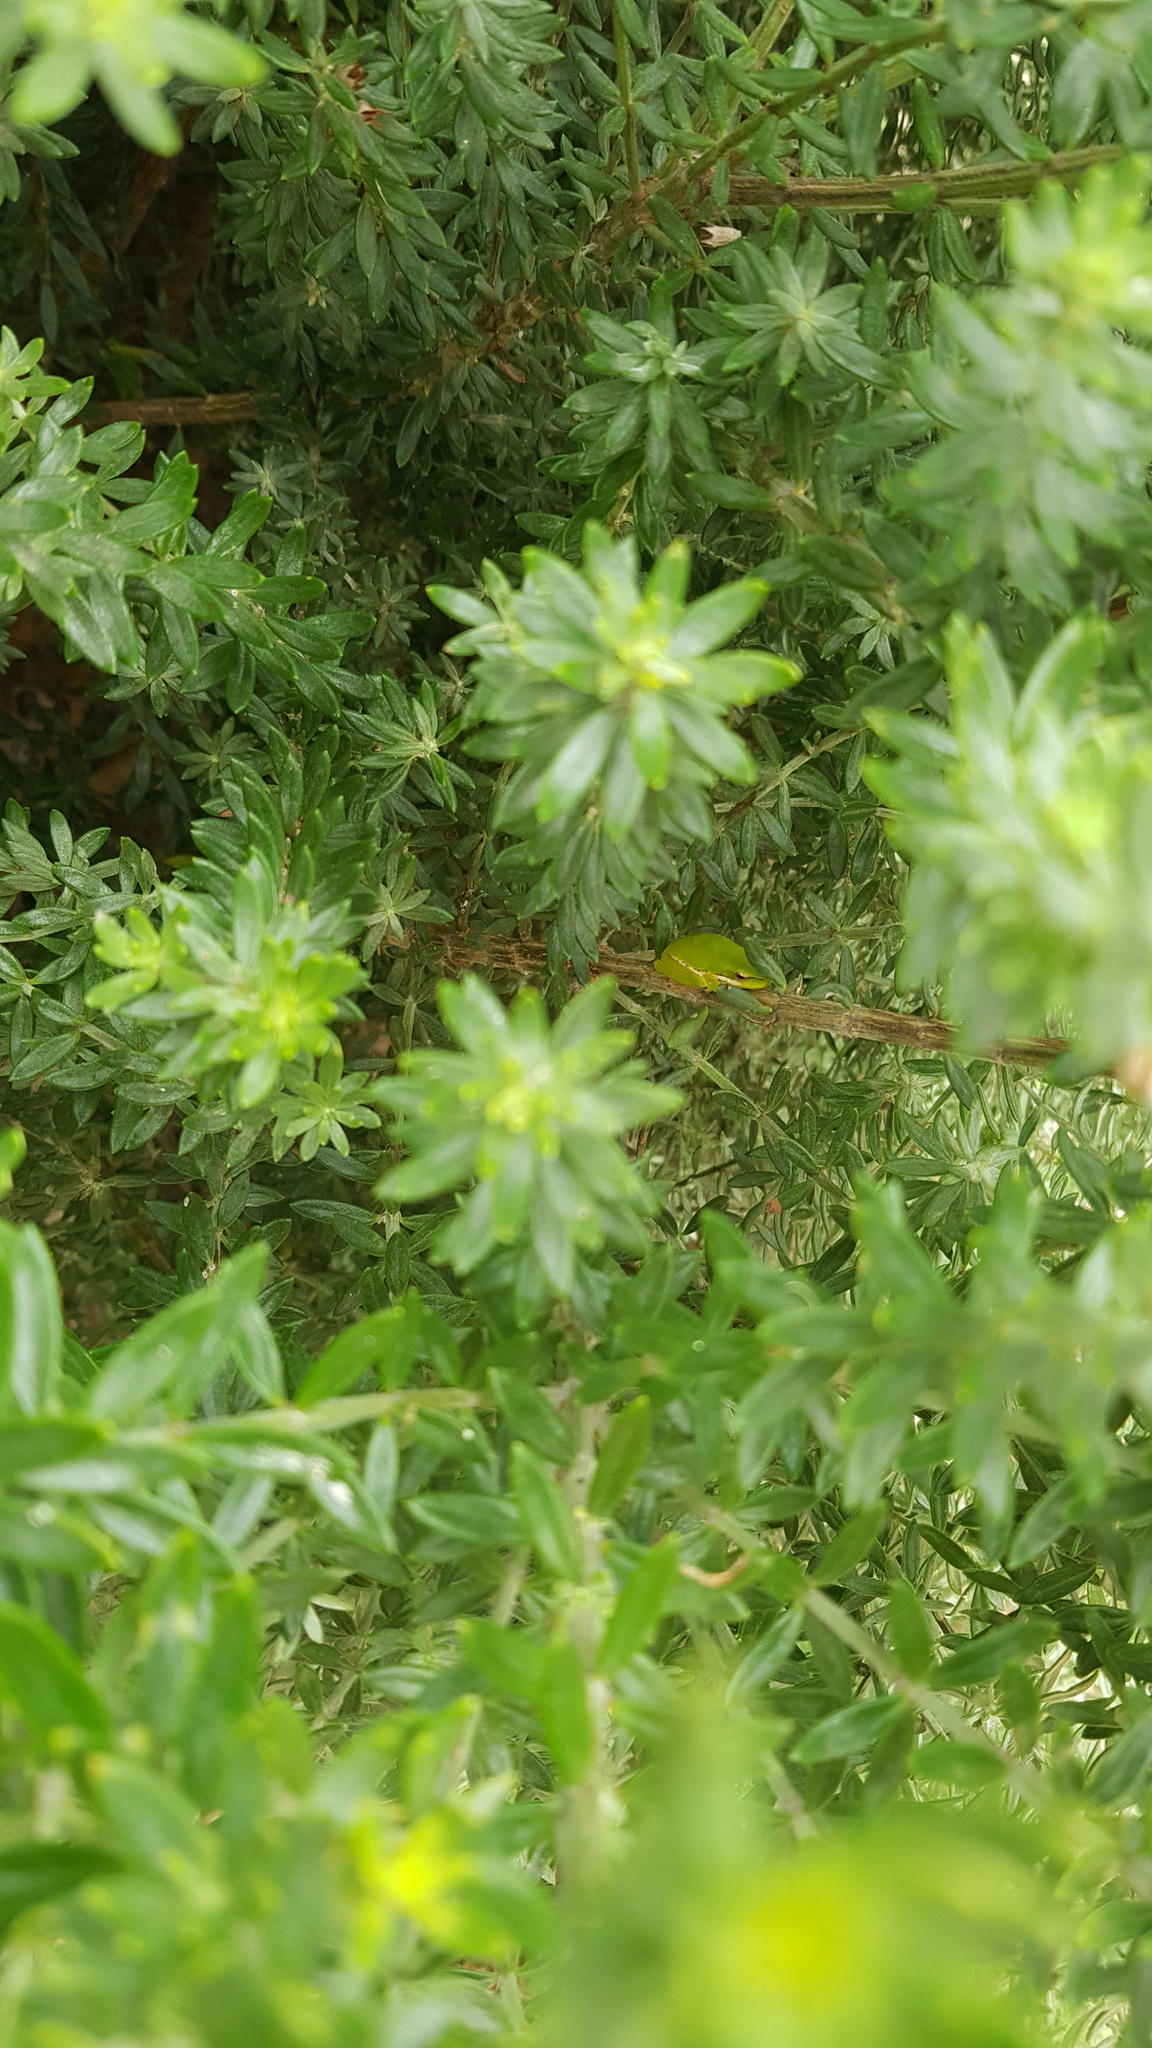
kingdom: Animalia
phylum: Chordata
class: Amphibia
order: Anura
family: Pelodryadidae
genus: Litoria
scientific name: Litoria fallax
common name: Eastern dwarf treefrog
